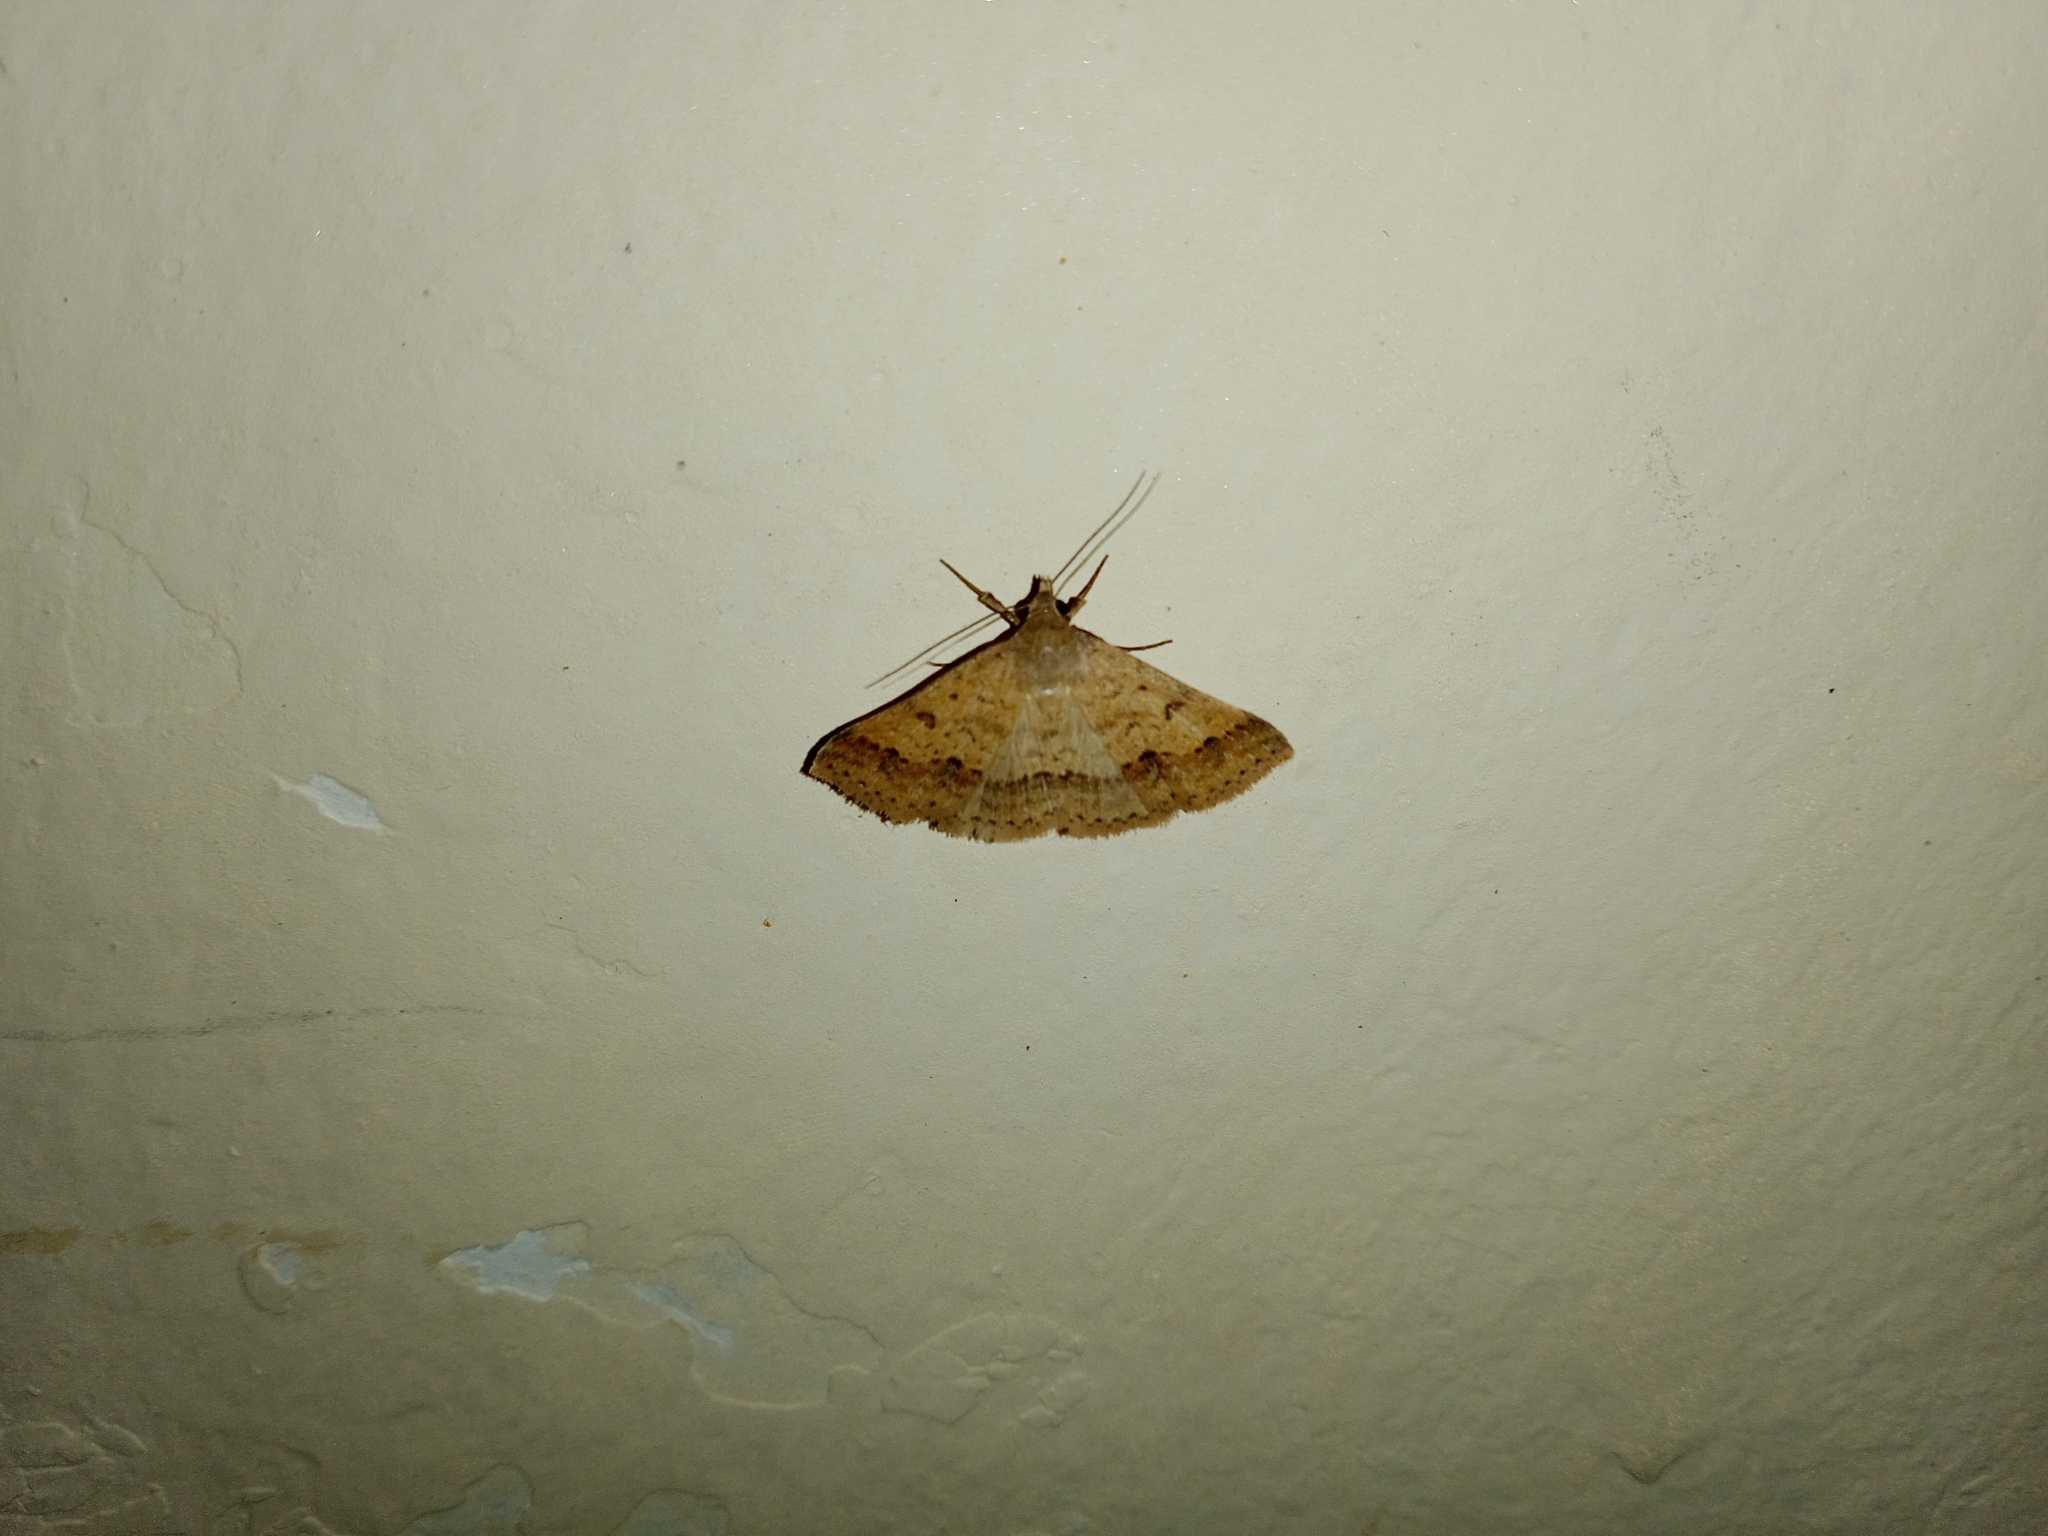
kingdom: Animalia
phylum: Arthropoda
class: Insecta
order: Lepidoptera
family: Erebidae
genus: Gesonia
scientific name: Gesonia obeditalis
